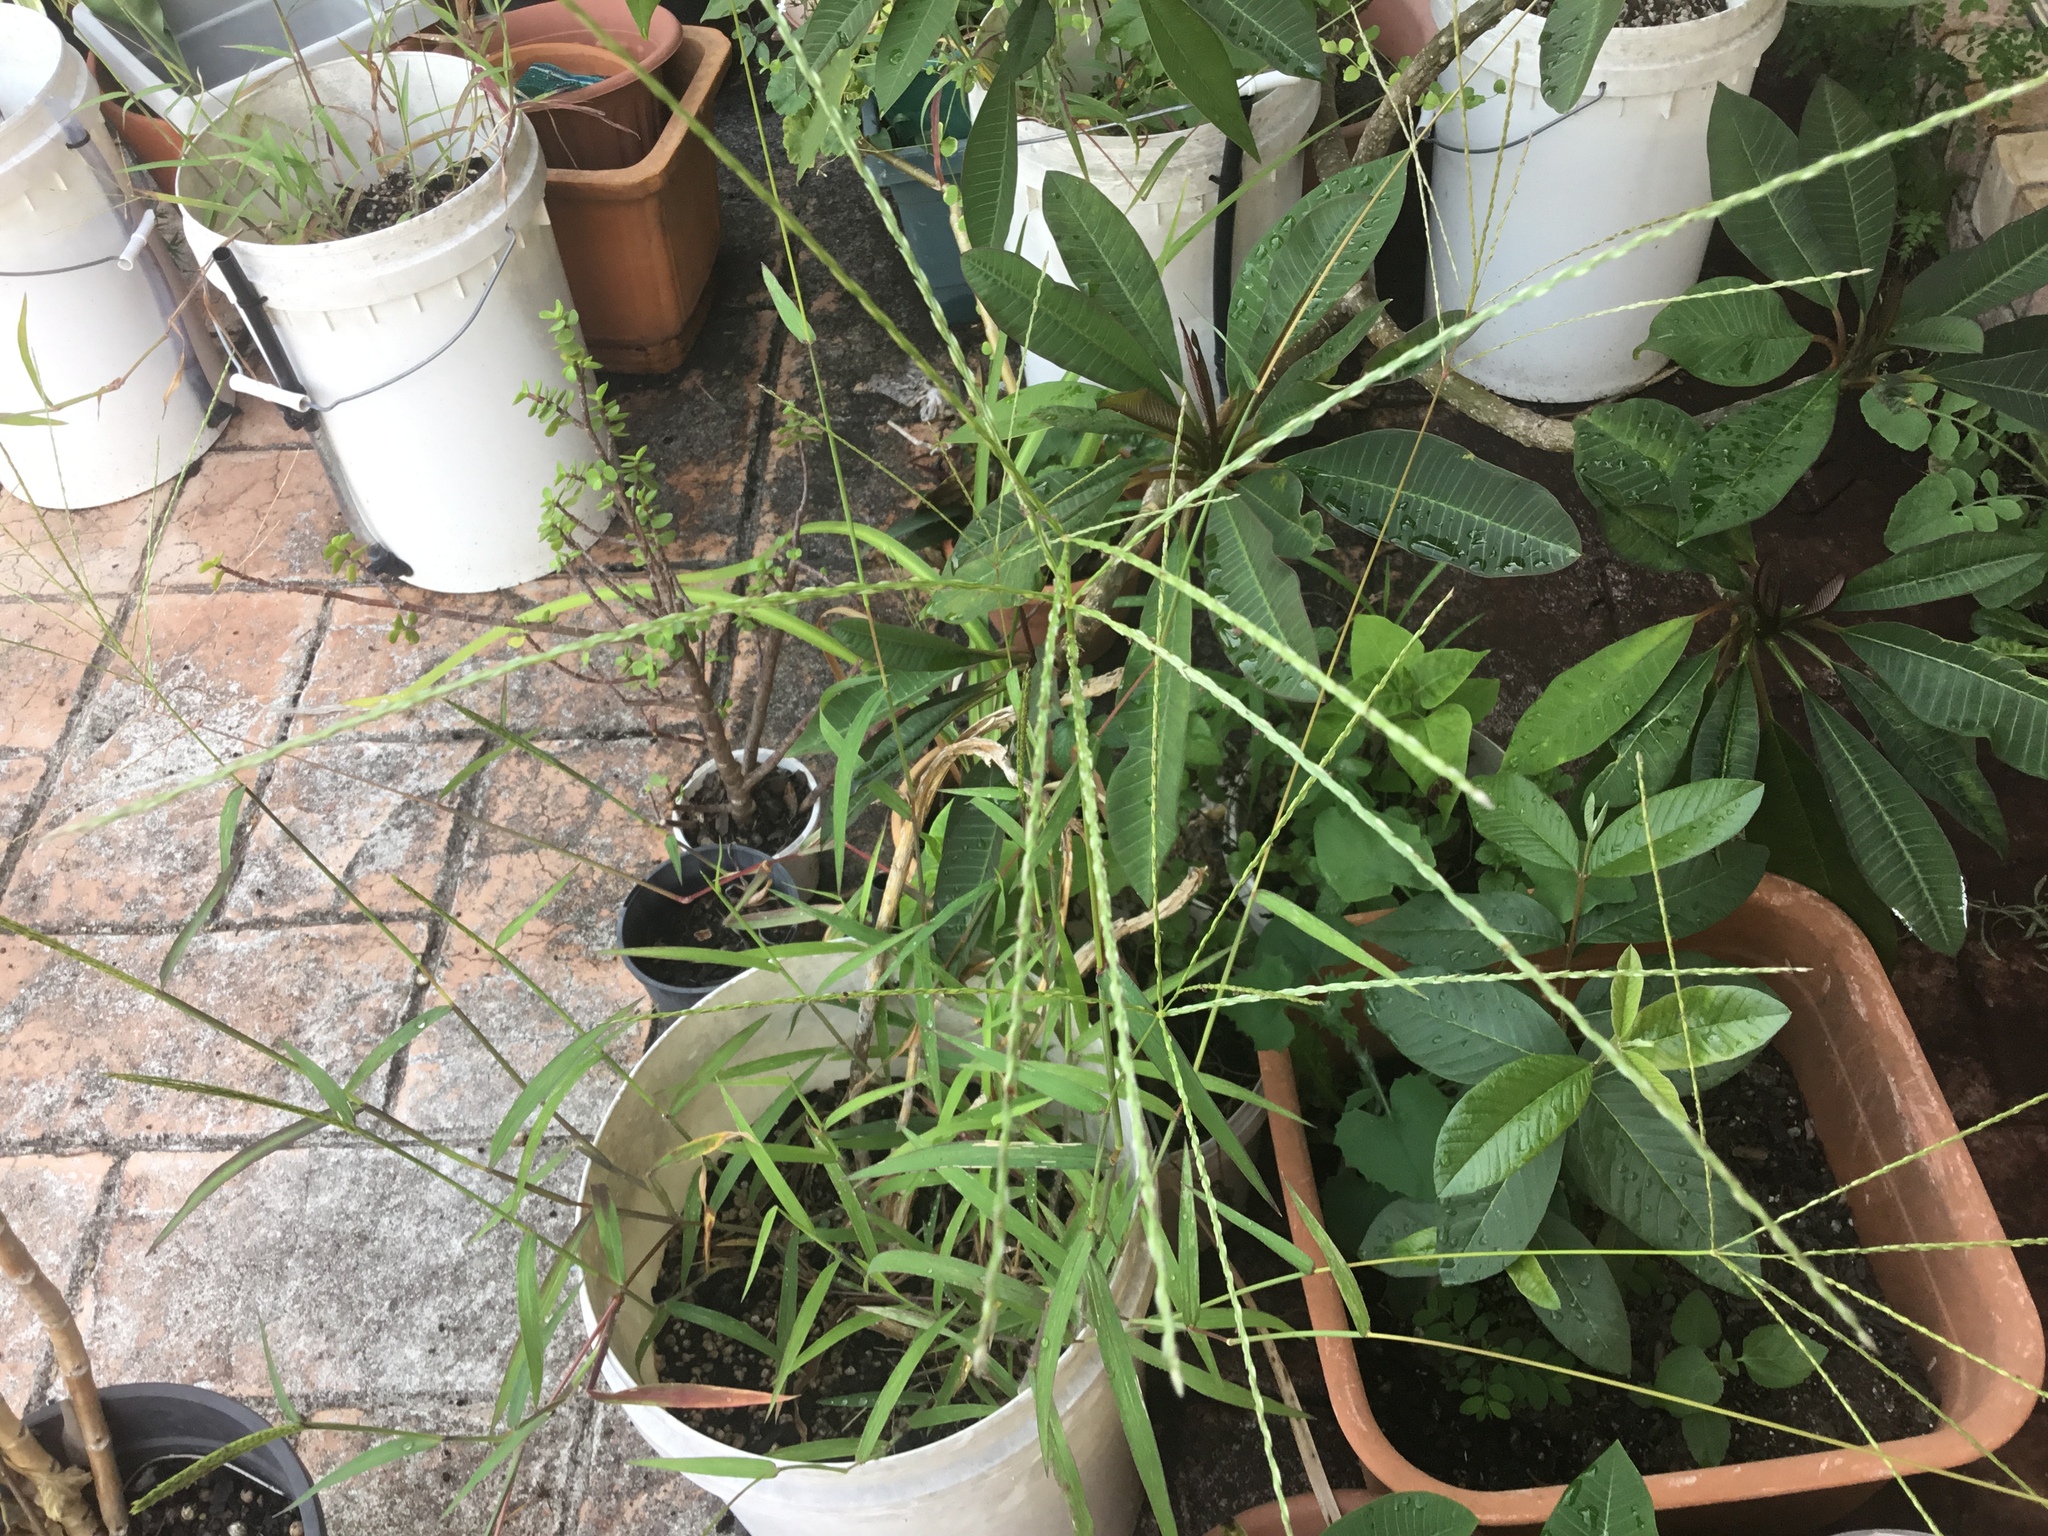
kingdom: Plantae
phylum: Tracheophyta
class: Liliopsida
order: Poales
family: Poaceae
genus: Digitaria
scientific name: Digitaria sanguinalis
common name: Hairy crabgrass
